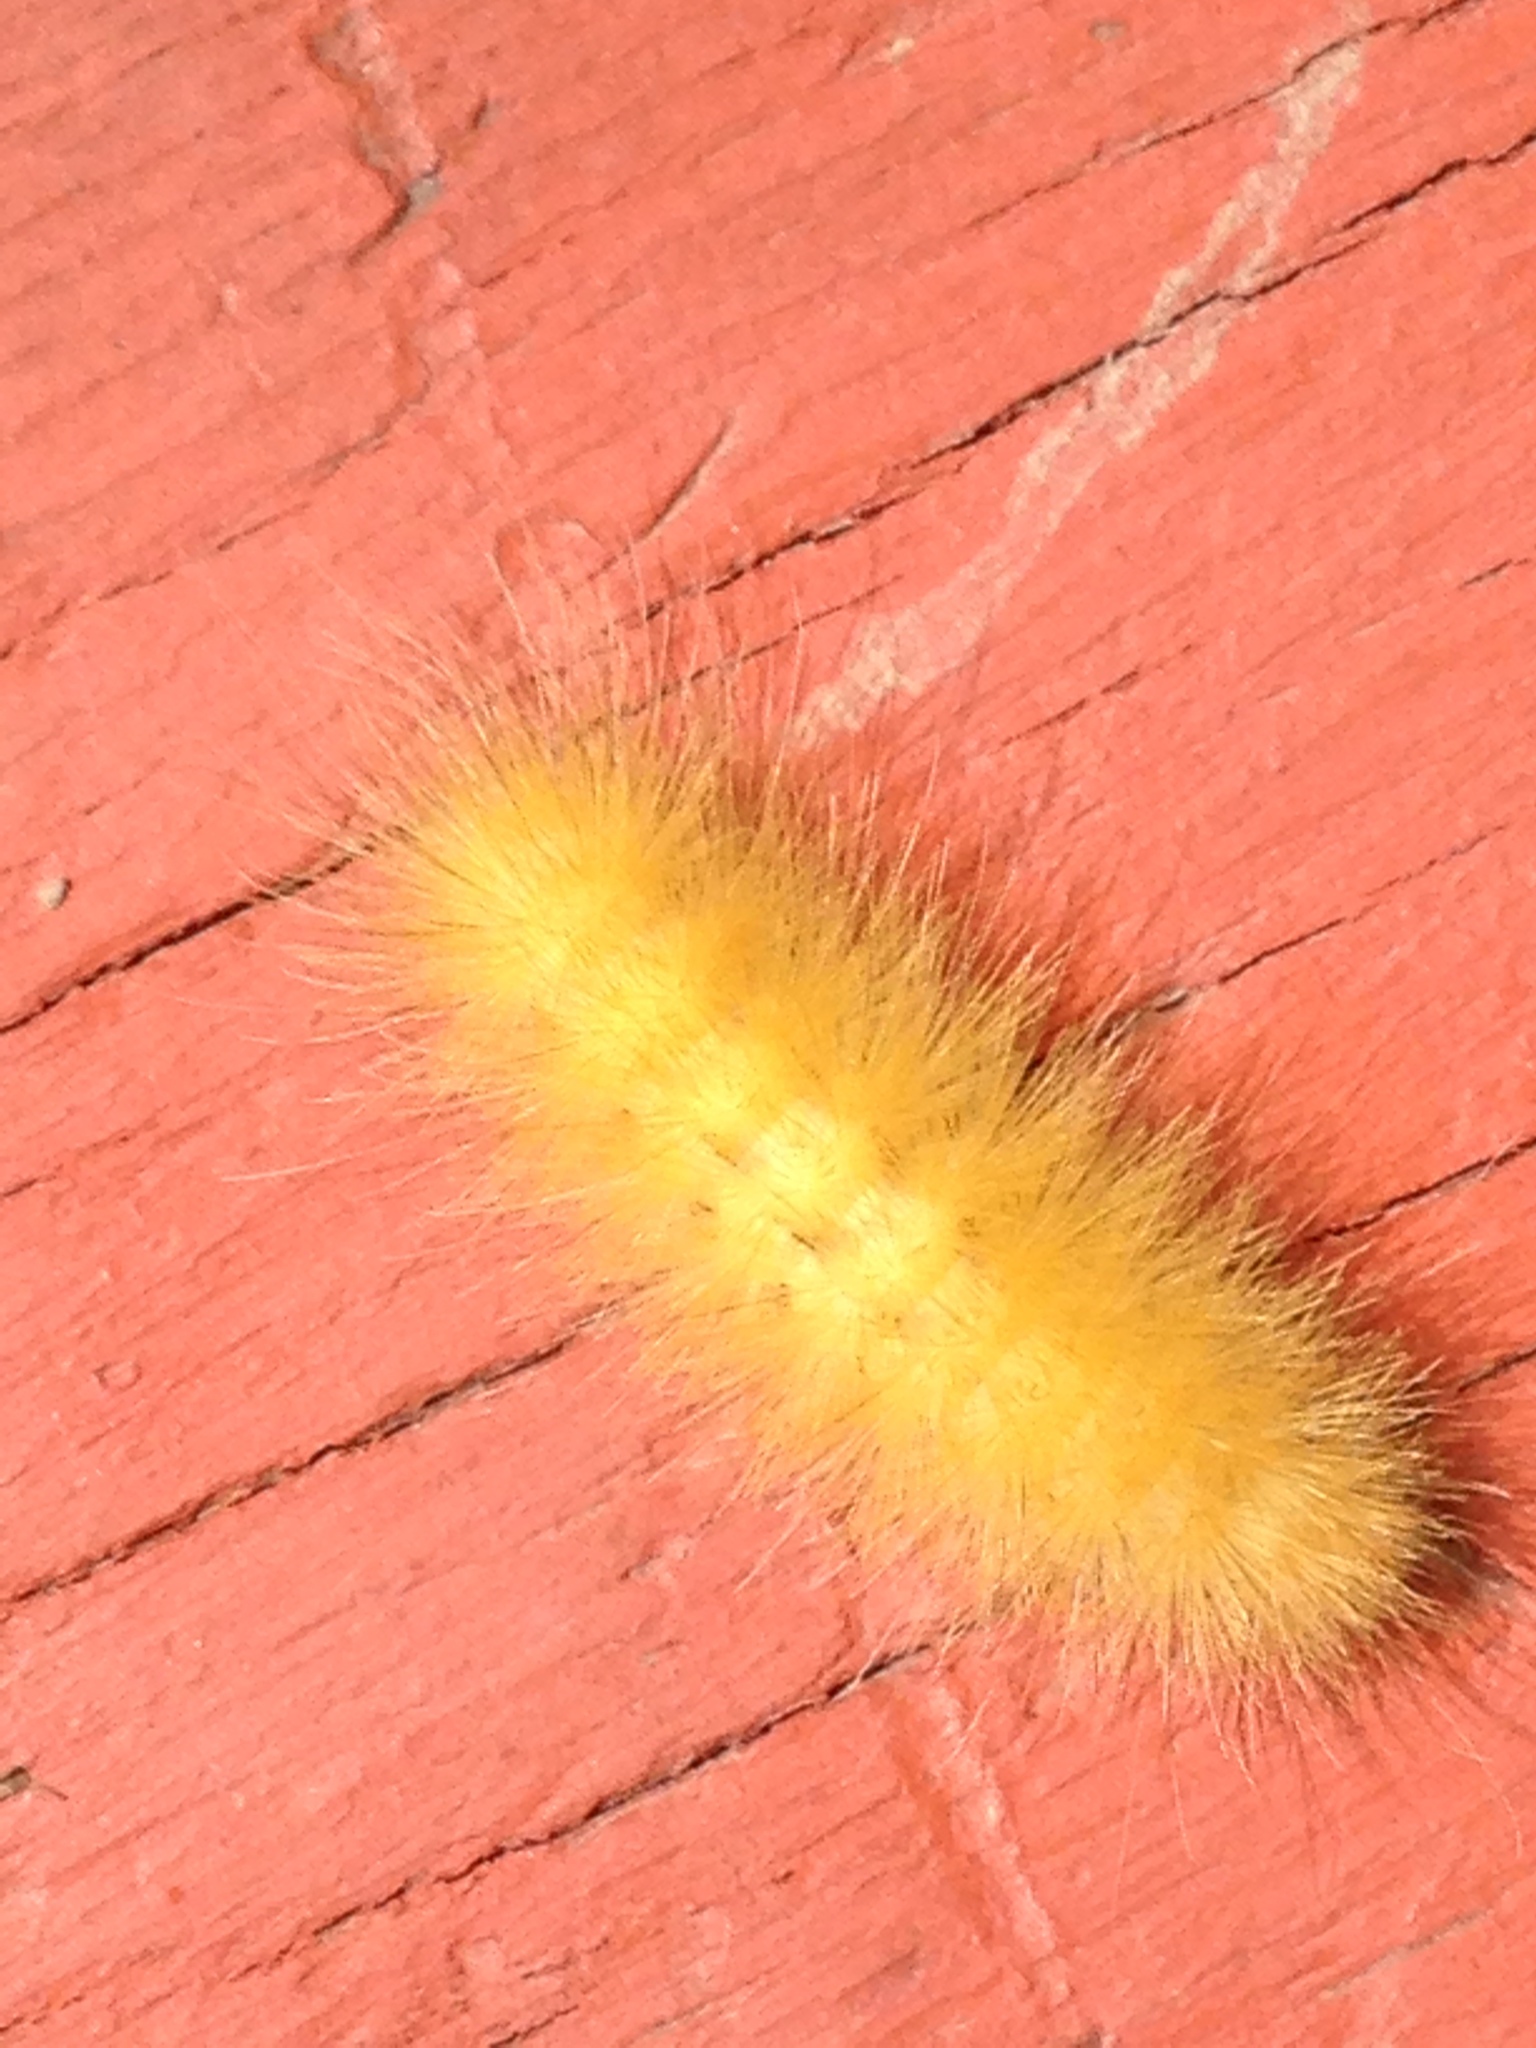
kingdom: Animalia
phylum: Arthropoda
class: Insecta
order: Lepidoptera
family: Erebidae
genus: Spilosoma
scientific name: Spilosoma virginica
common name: Virginia tiger moth
